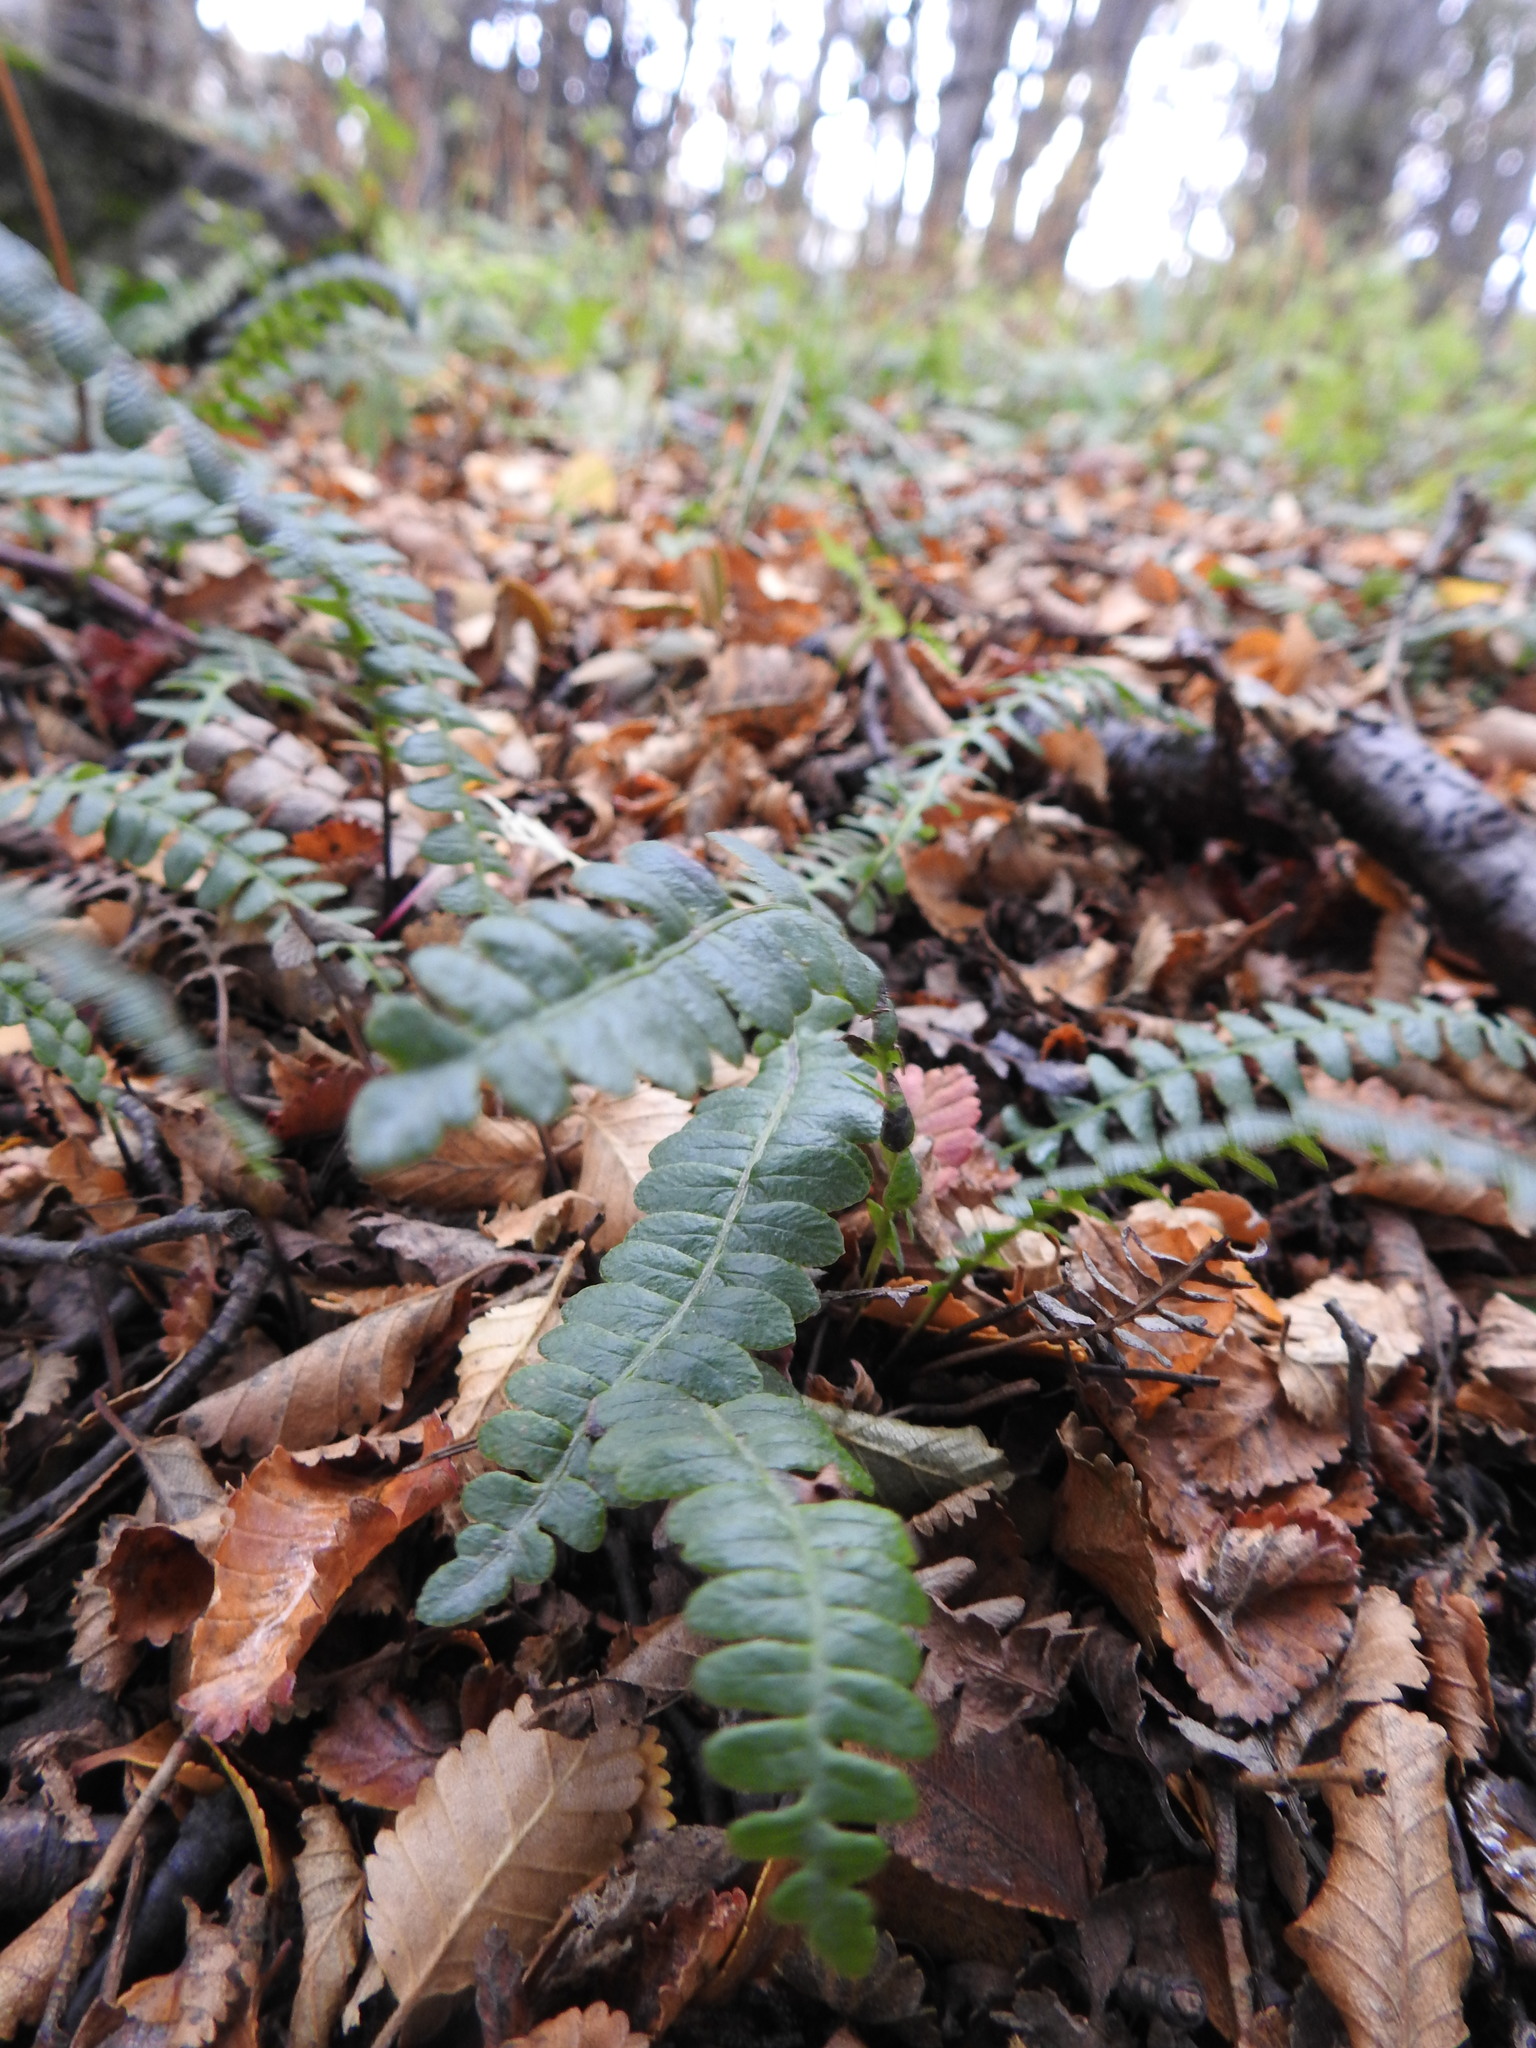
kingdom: Plantae
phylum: Tracheophyta
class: Polypodiopsida
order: Polypodiales
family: Blechnaceae
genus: Austroblechnum
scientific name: Austroblechnum penna-marina
